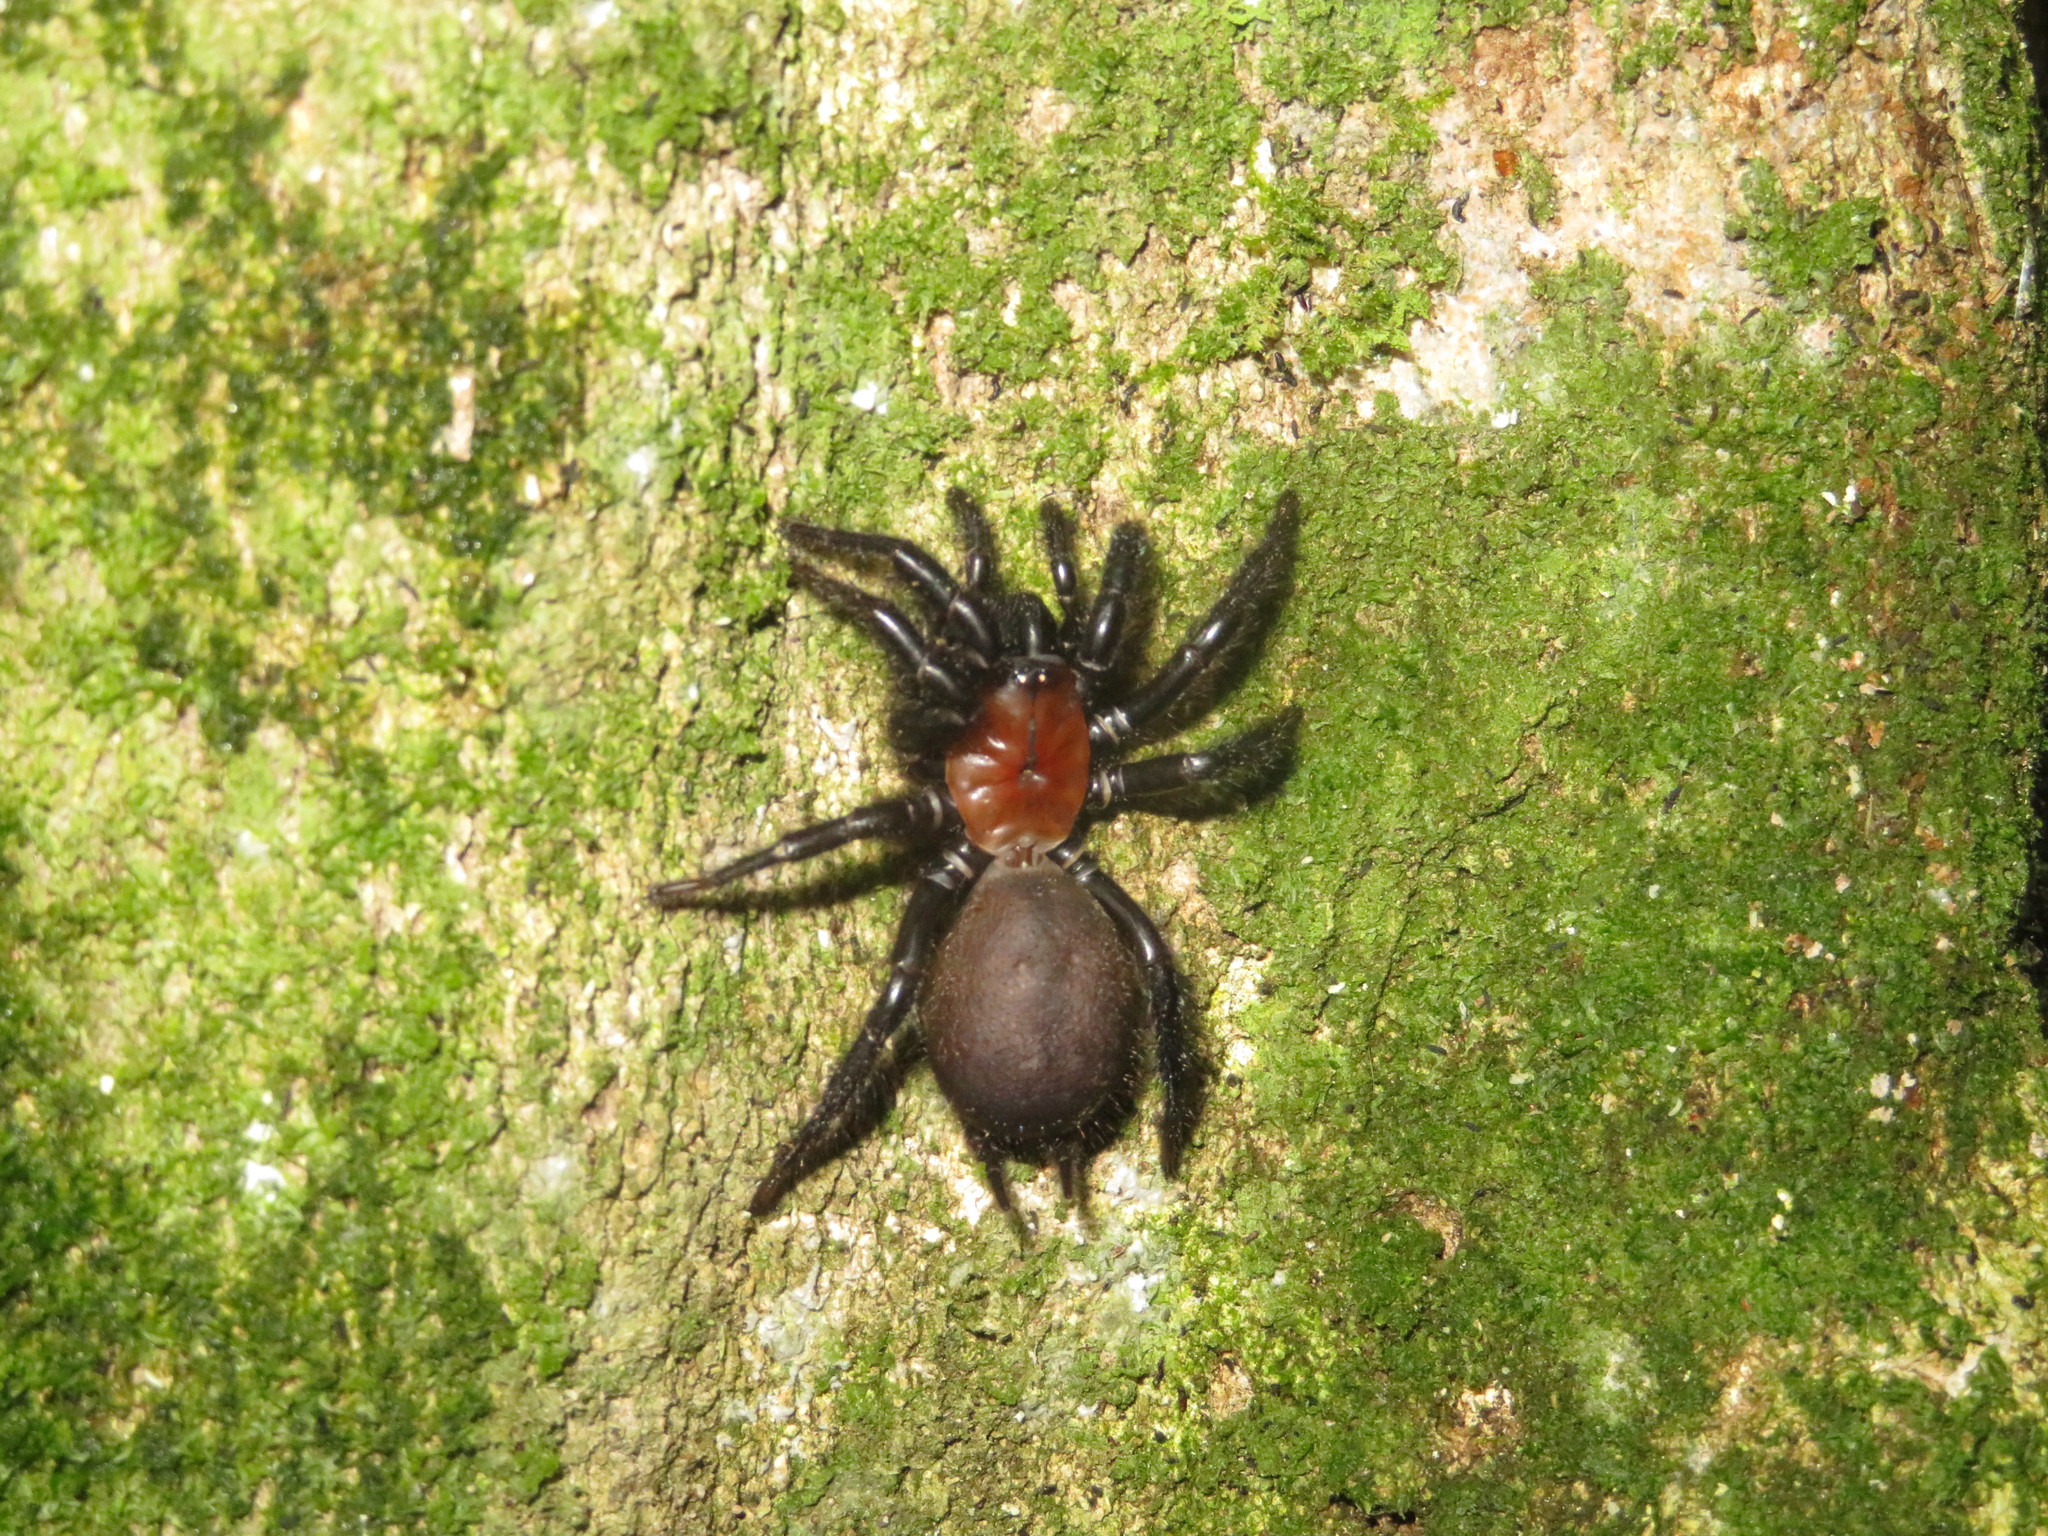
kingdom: Animalia
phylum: Arthropoda
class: Arachnida
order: Araneae
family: Porrhothelidae
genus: Porrhothele
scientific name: Porrhothele antipodiana
